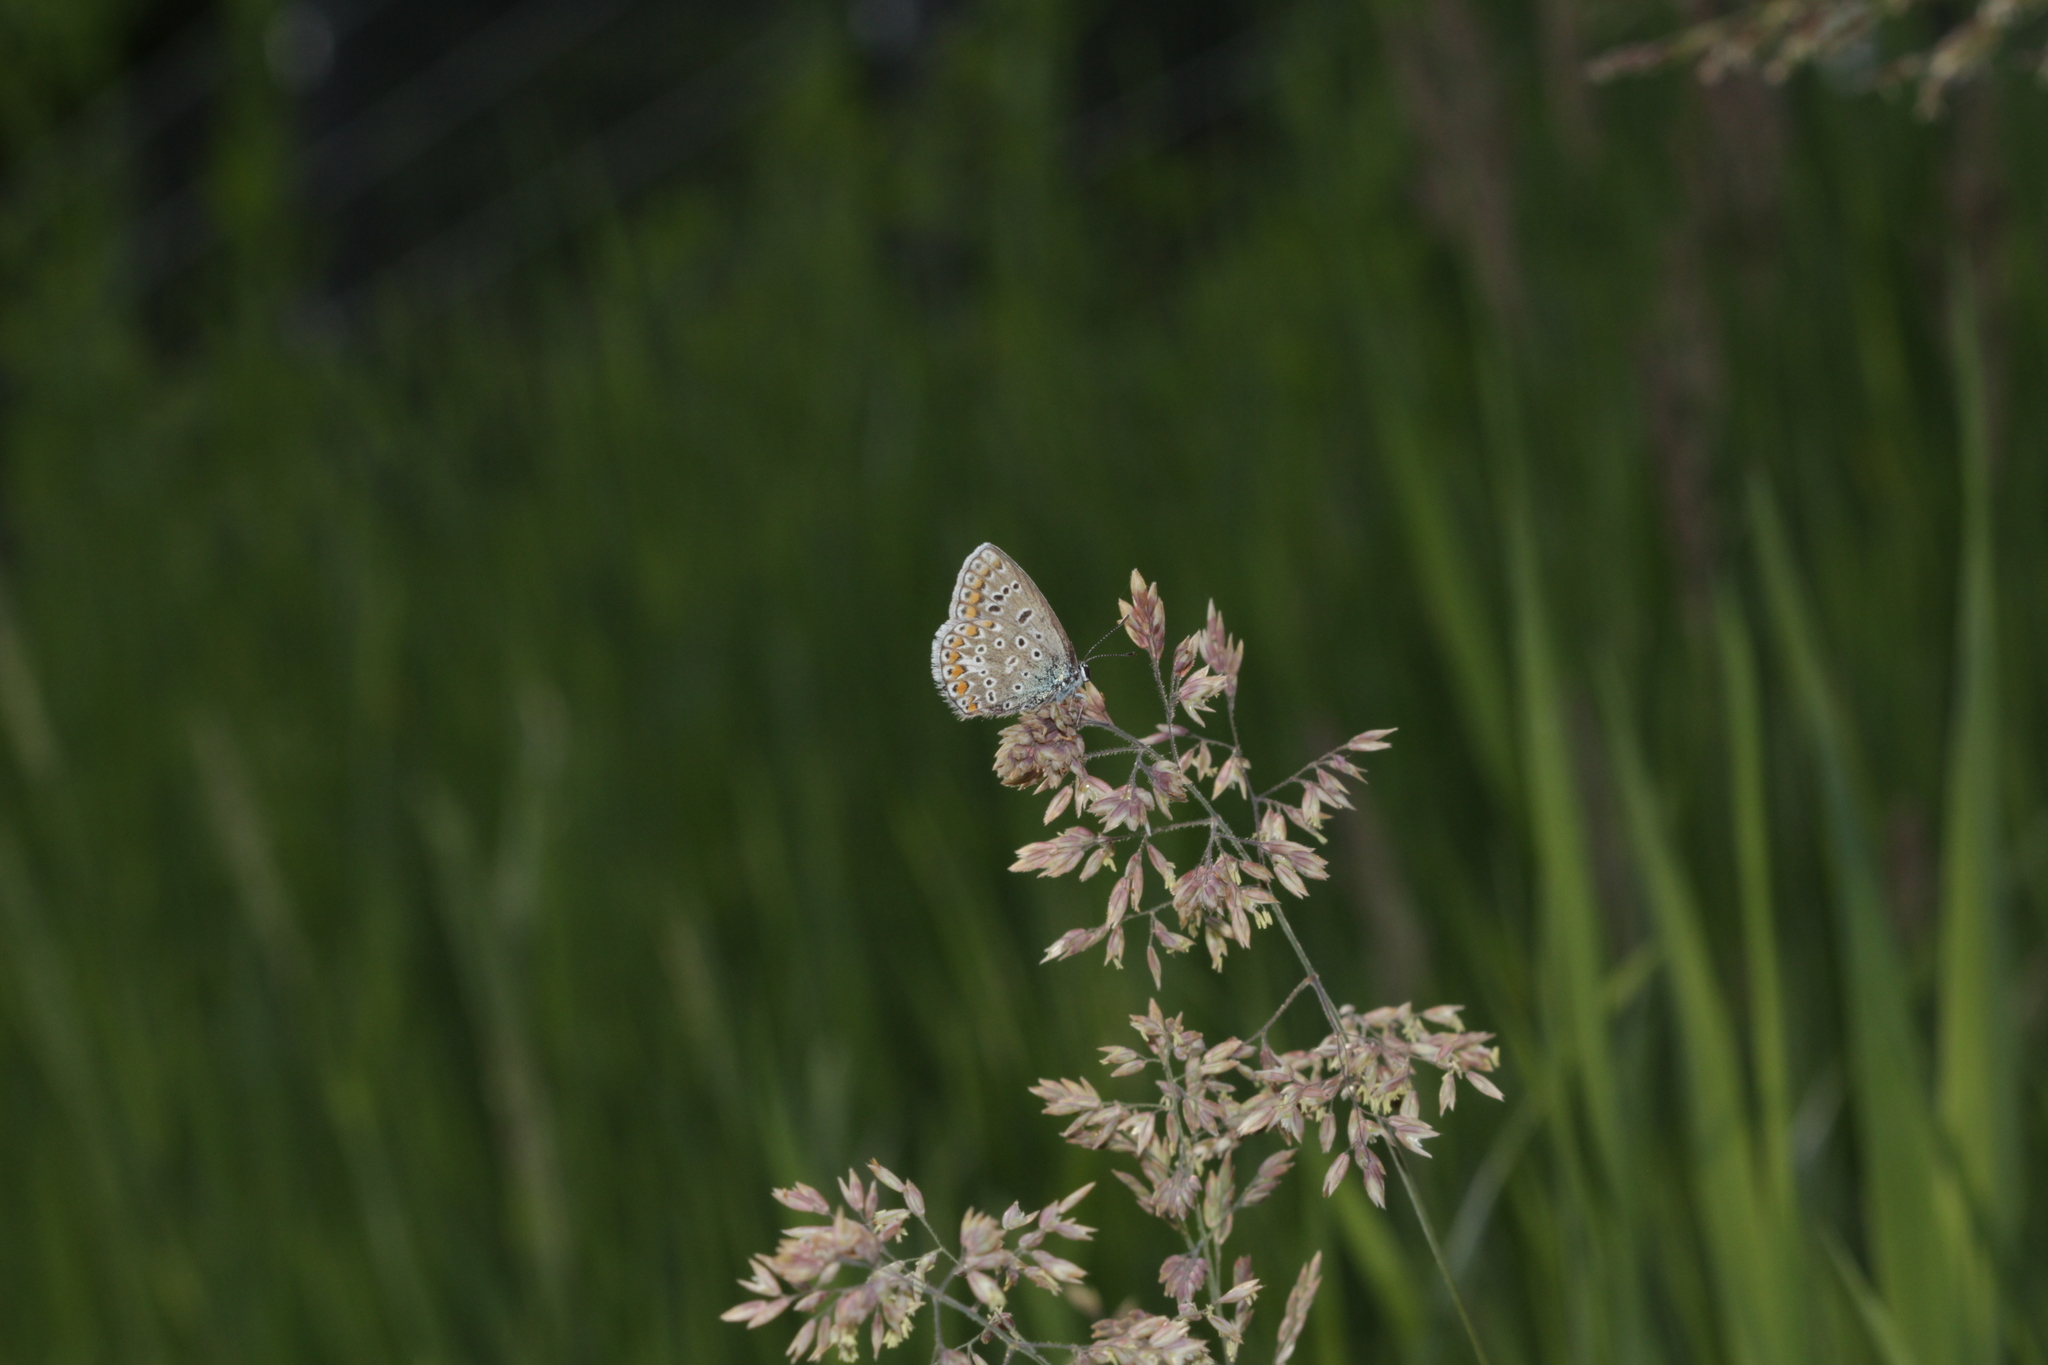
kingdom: Animalia
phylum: Arthropoda
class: Insecta
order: Lepidoptera
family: Lycaenidae
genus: Polyommatus
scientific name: Polyommatus icarus
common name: Common blue
